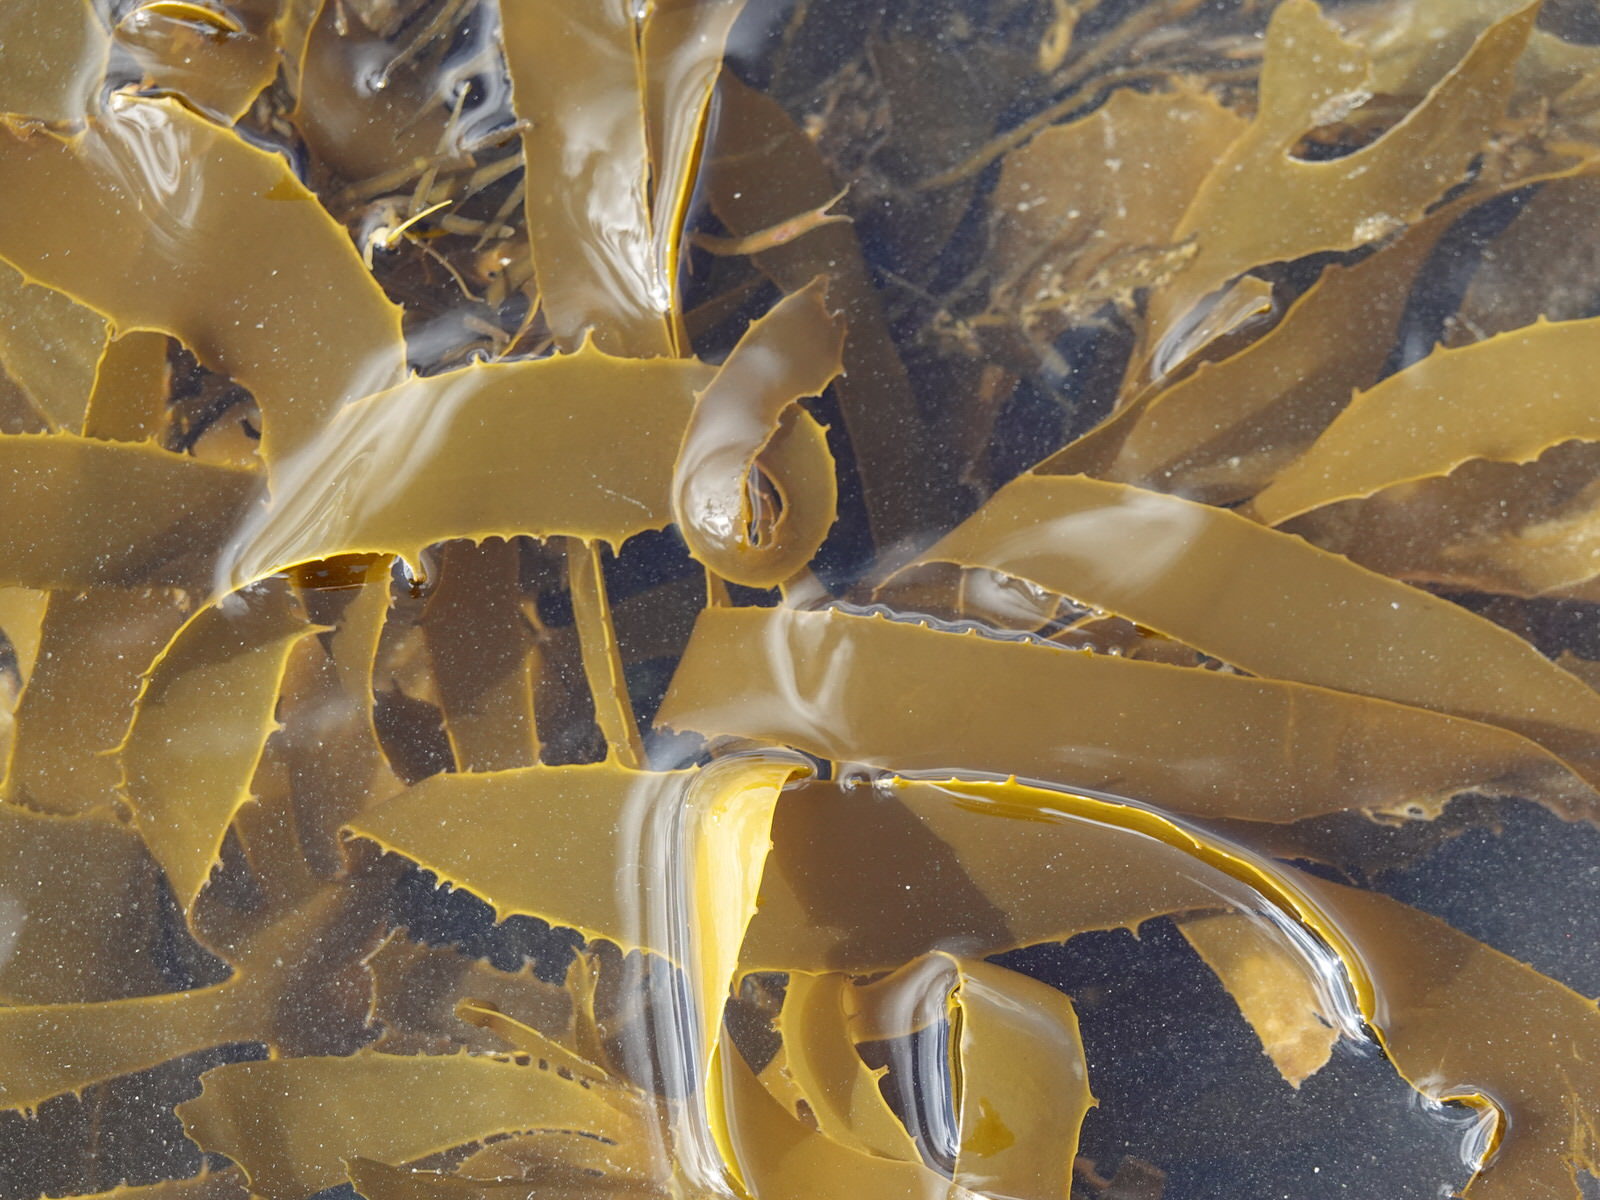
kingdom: Chromista
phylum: Ochrophyta
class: Phaeophyceae
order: Laminariales
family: Lessoniaceae
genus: Ecklonia
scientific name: Ecklonia radiata
